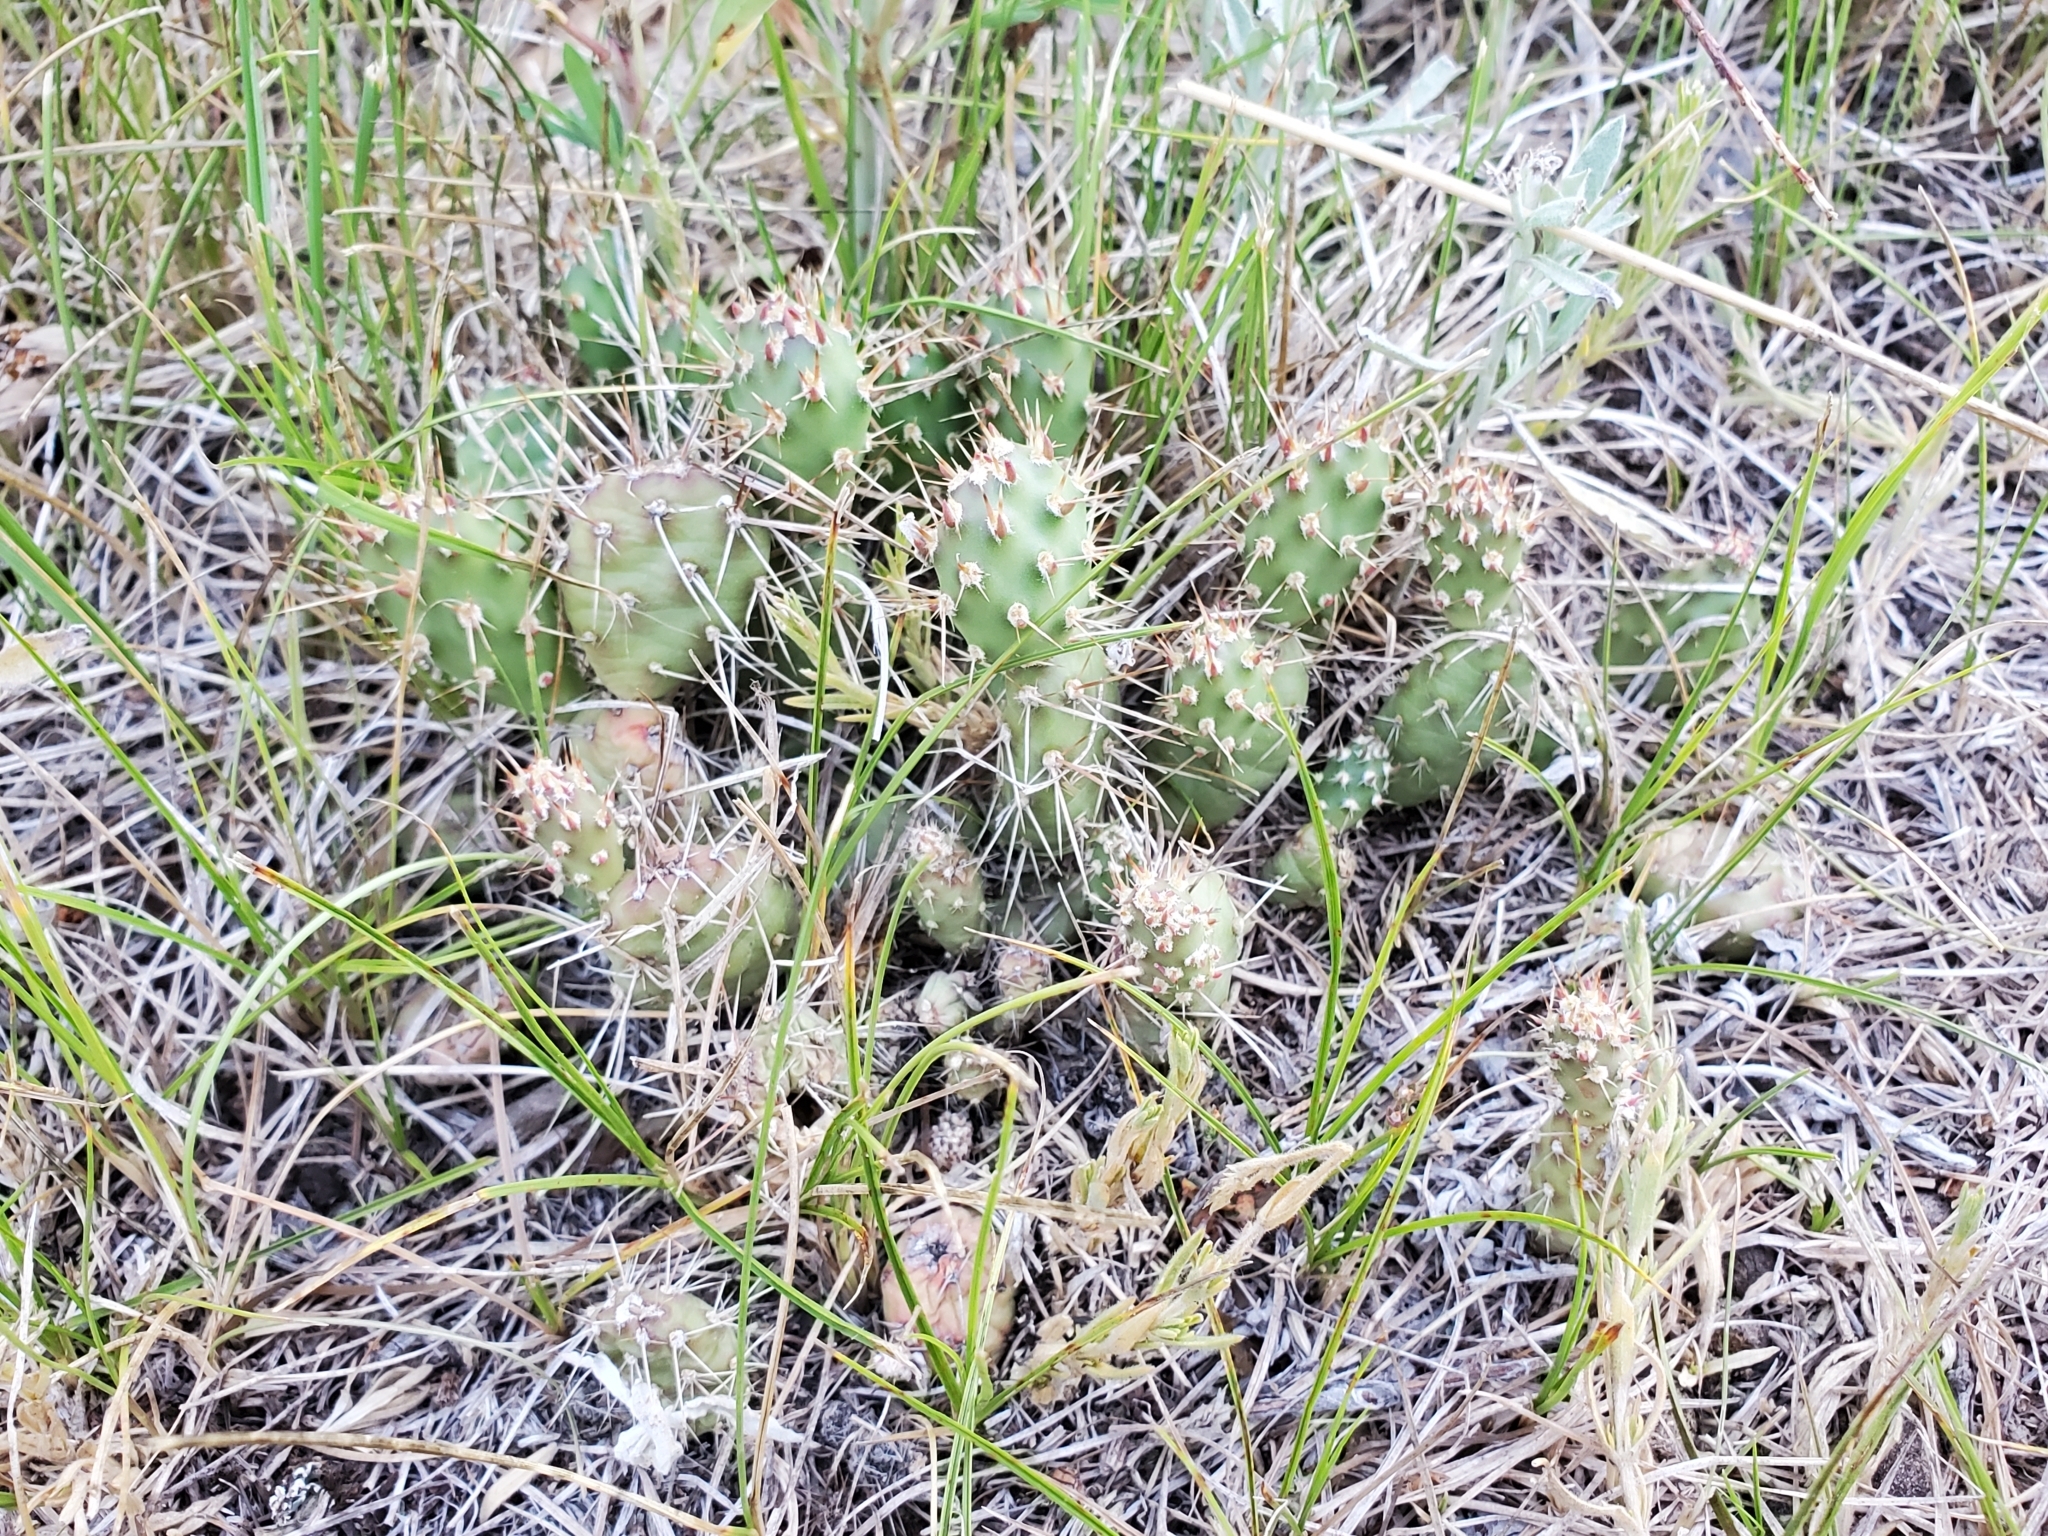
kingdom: Plantae
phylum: Tracheophyta
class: Magnoliopsida
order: Caryophyllales
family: Cactaceae
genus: Opuntia
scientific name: Opuntia fragilis
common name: Brittle cactus
